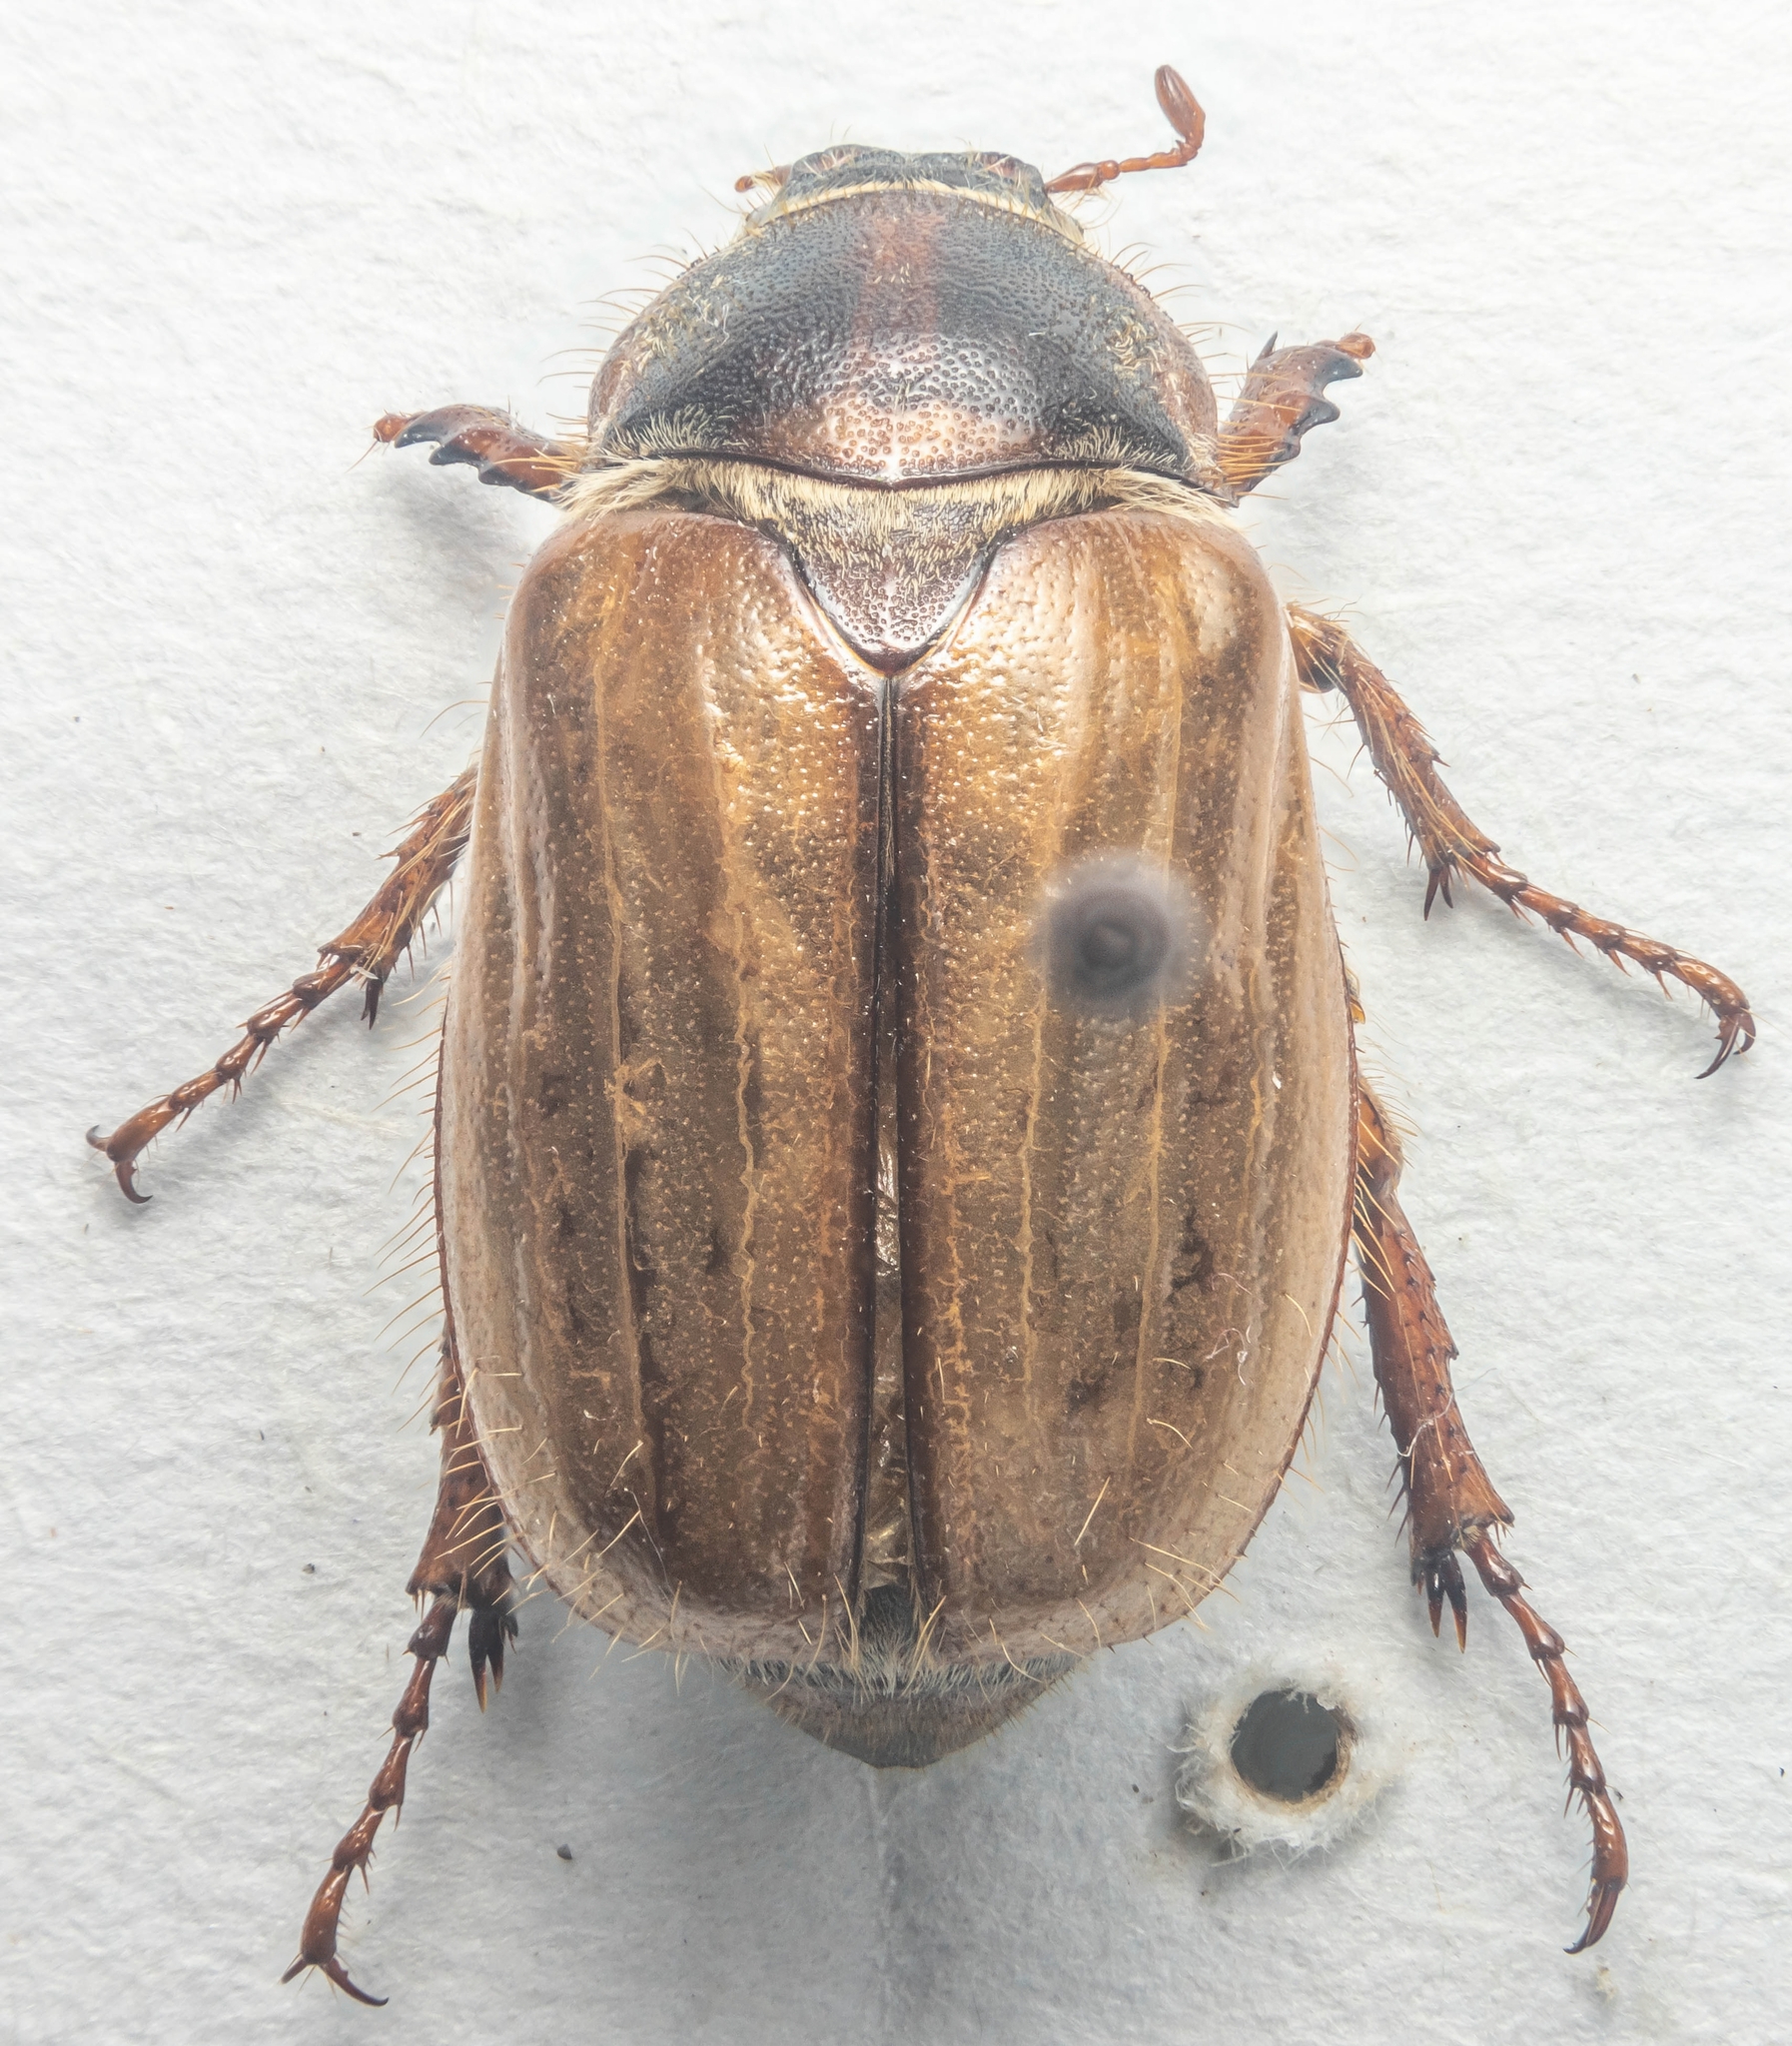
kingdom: Animalia
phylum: Arthropoda
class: Insecta
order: Coleoptera
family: Scarabaeidae
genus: Amphimallon
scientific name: Amphimallon solstitiale
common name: Summer chafer
